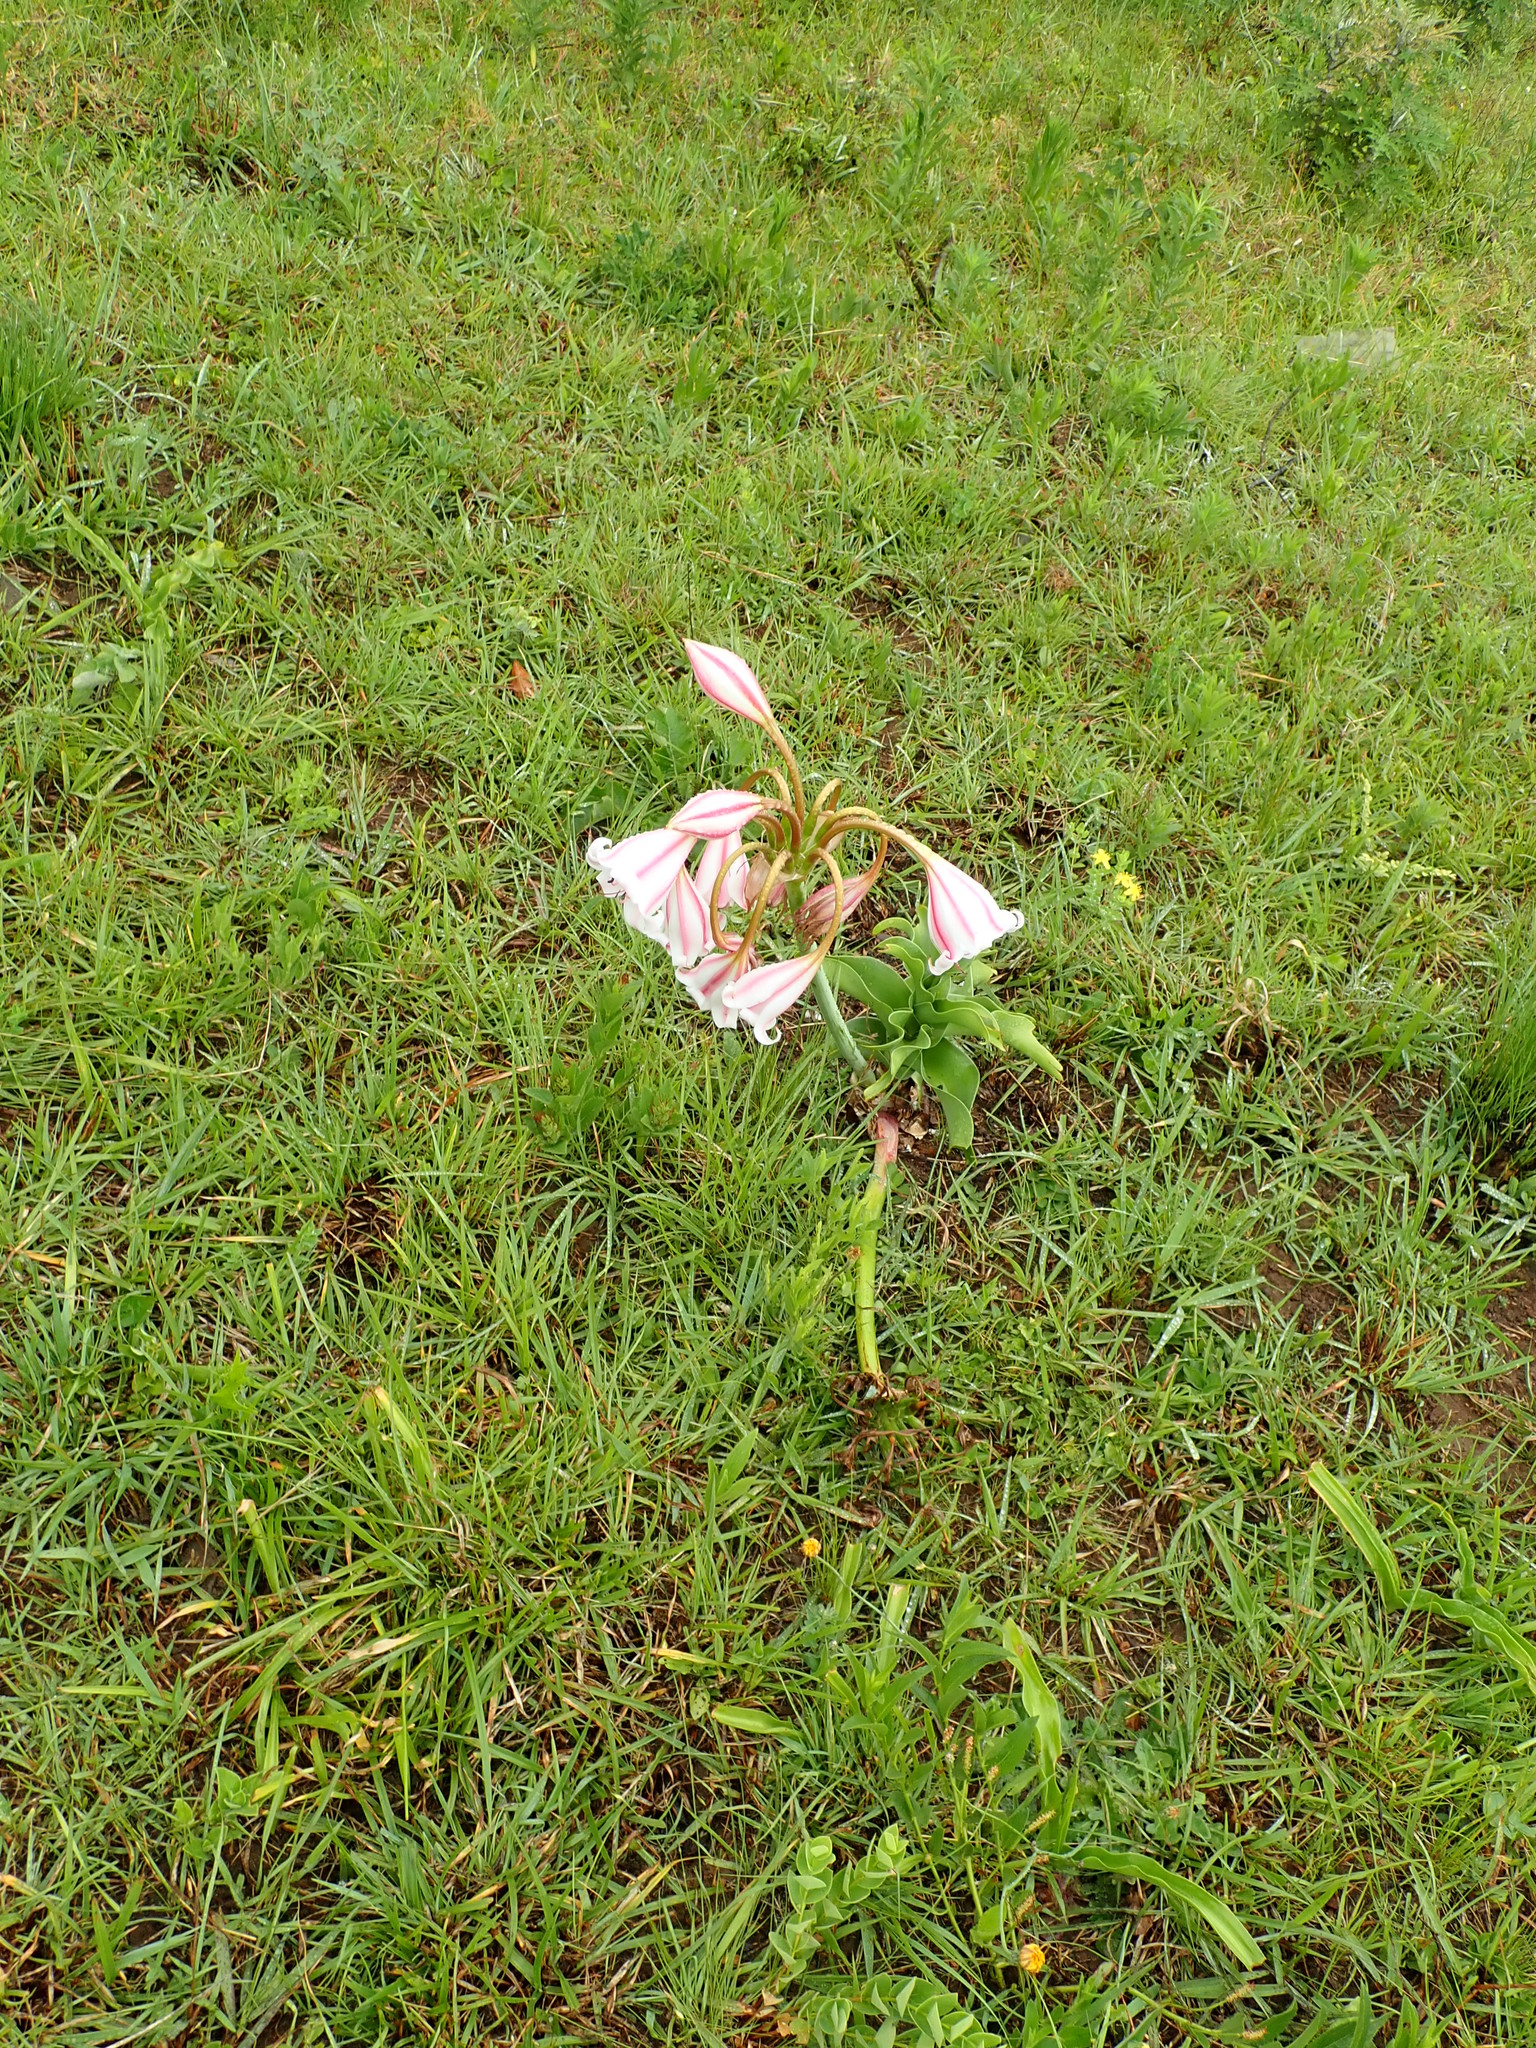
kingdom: Plantae
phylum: Tracheophyta
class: Liliopsida
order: Asparagales
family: Amaryllidaceae
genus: Crinum
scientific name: Crinum macowanii
